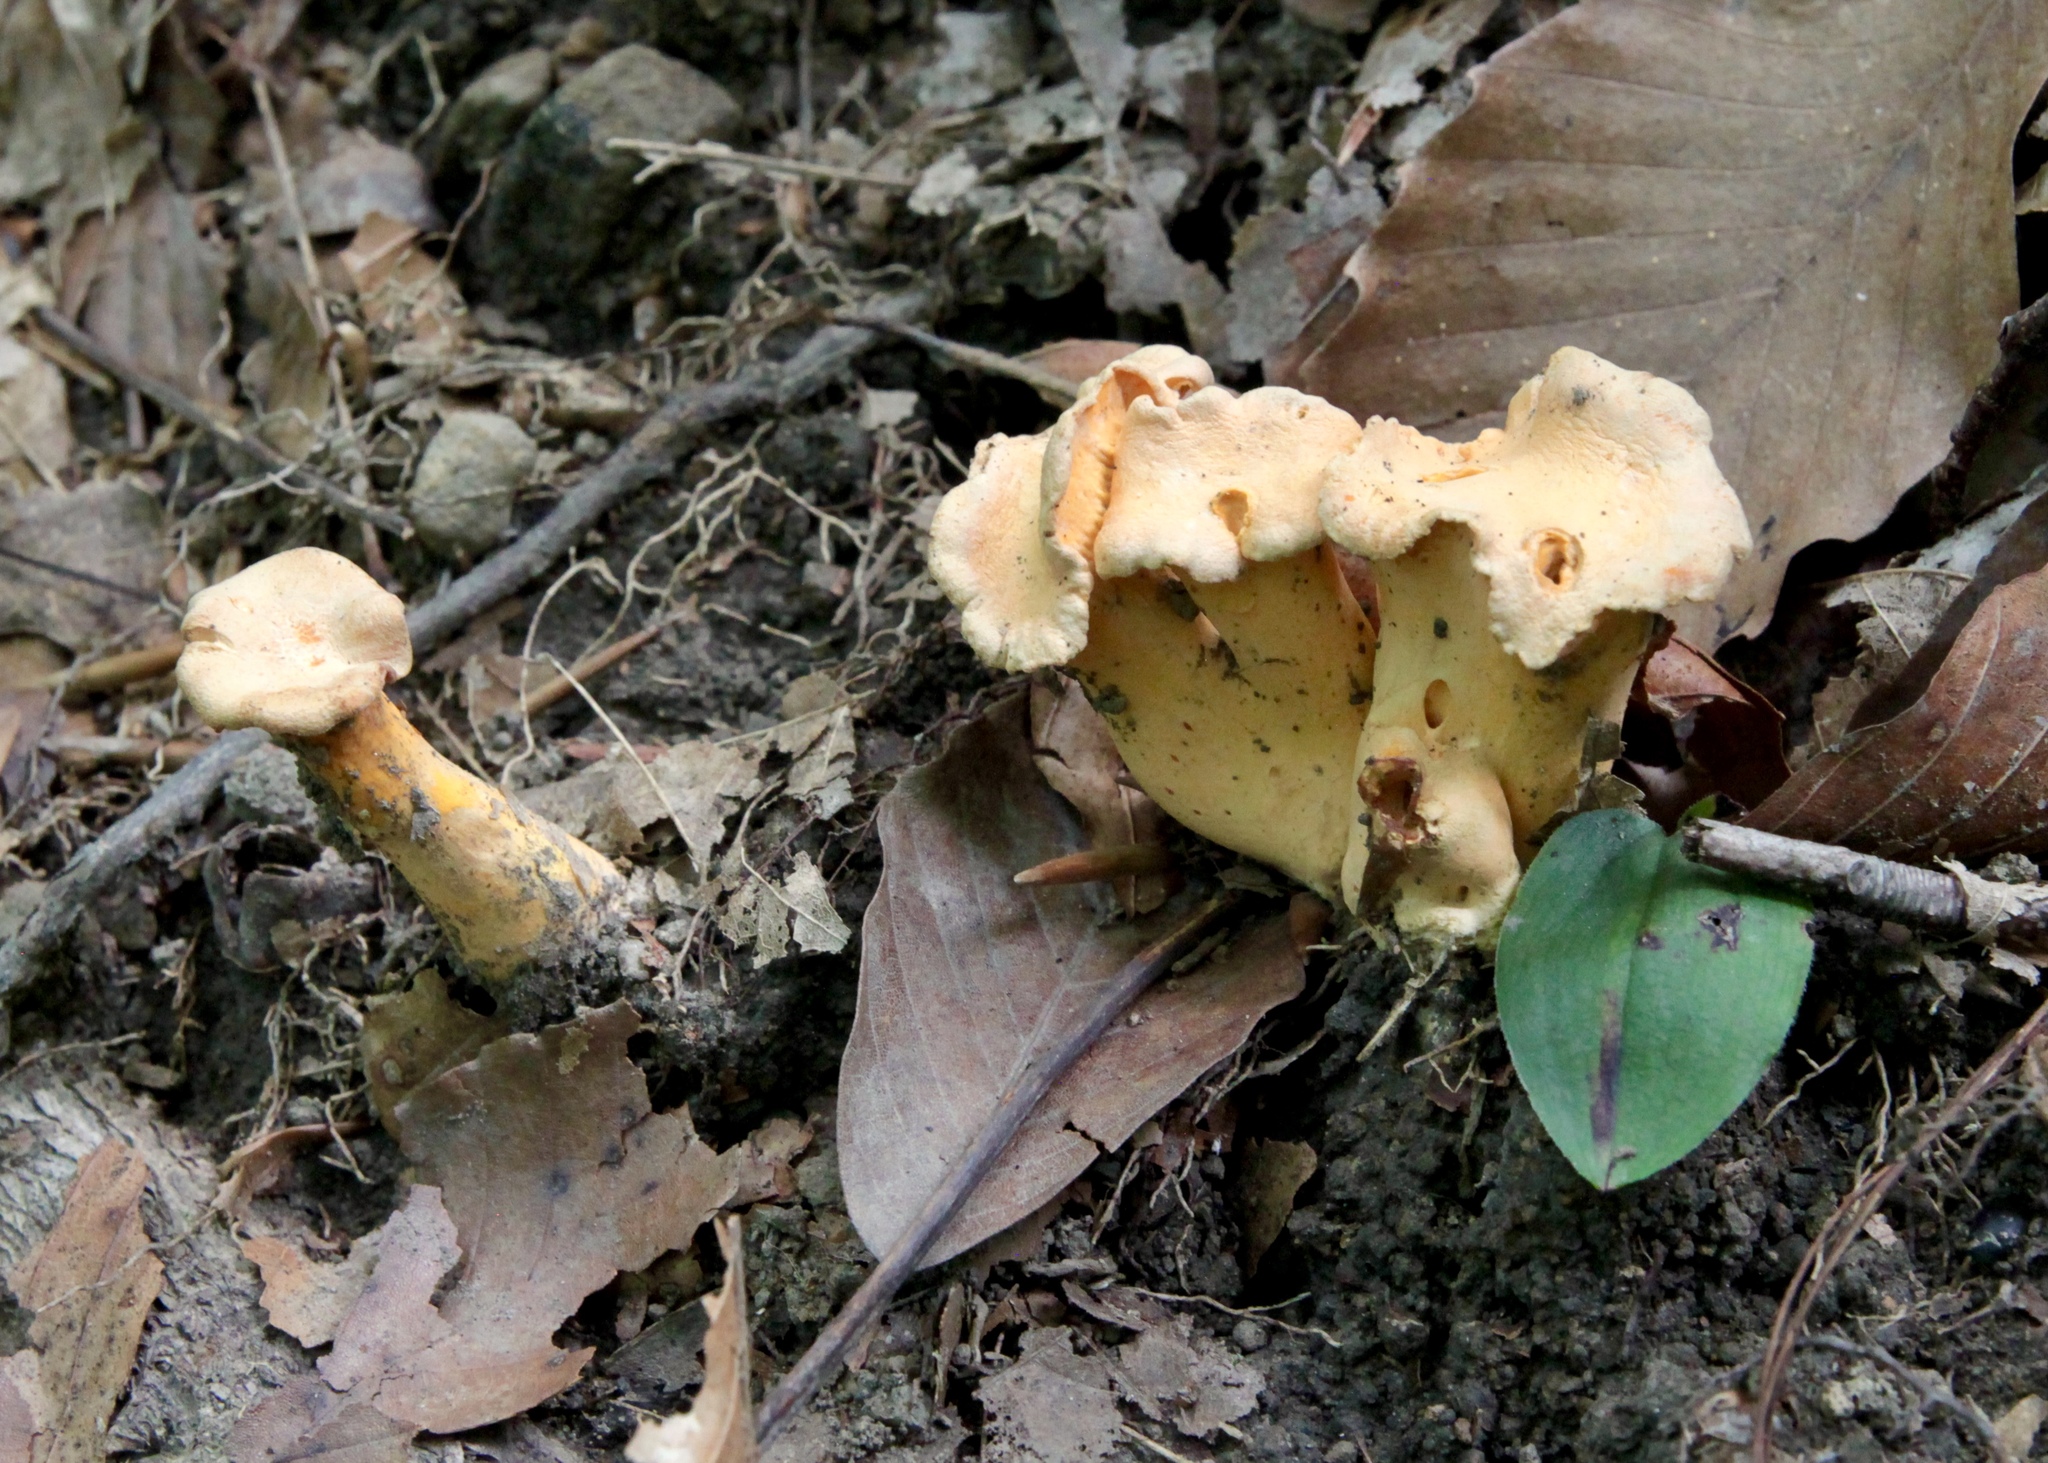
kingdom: Fungi
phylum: Basidiomycota
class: Agaricomycetes
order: Cantharellales
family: Hydnaceae
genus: Cantharellus
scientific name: Cantharellus lateritius
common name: Smooth chanterelle
